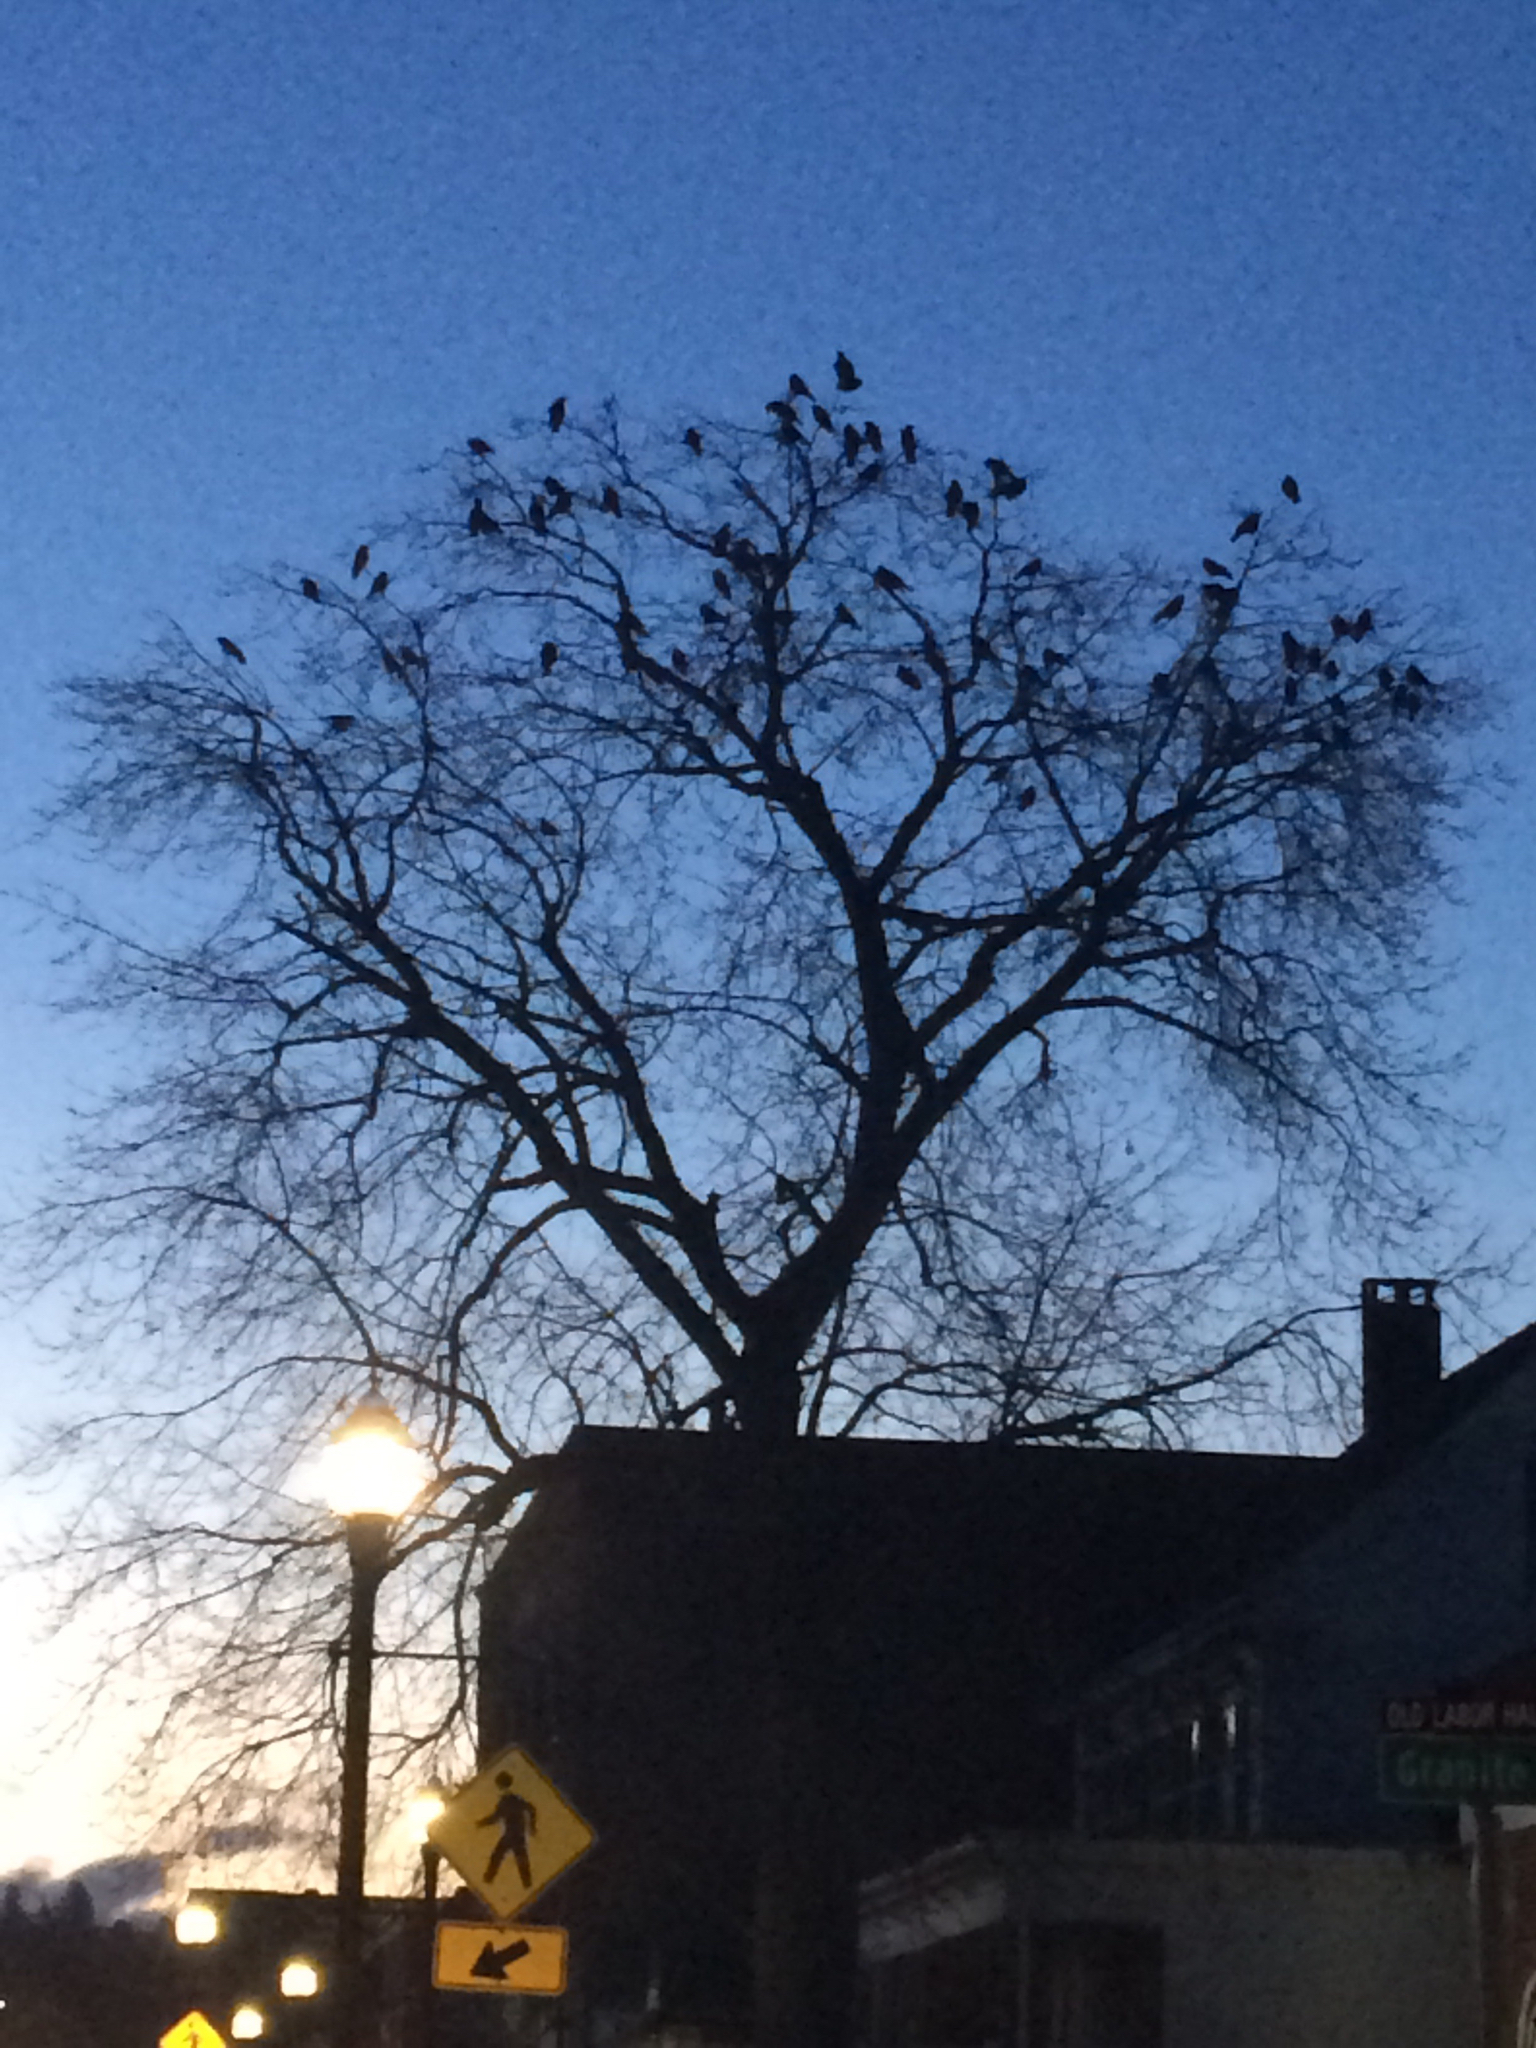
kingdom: Animalia
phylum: Chordata
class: Aves
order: Passeriformes
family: Corvidae
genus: Corvus
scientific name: Corvus brachyrhynchos
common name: American crow
